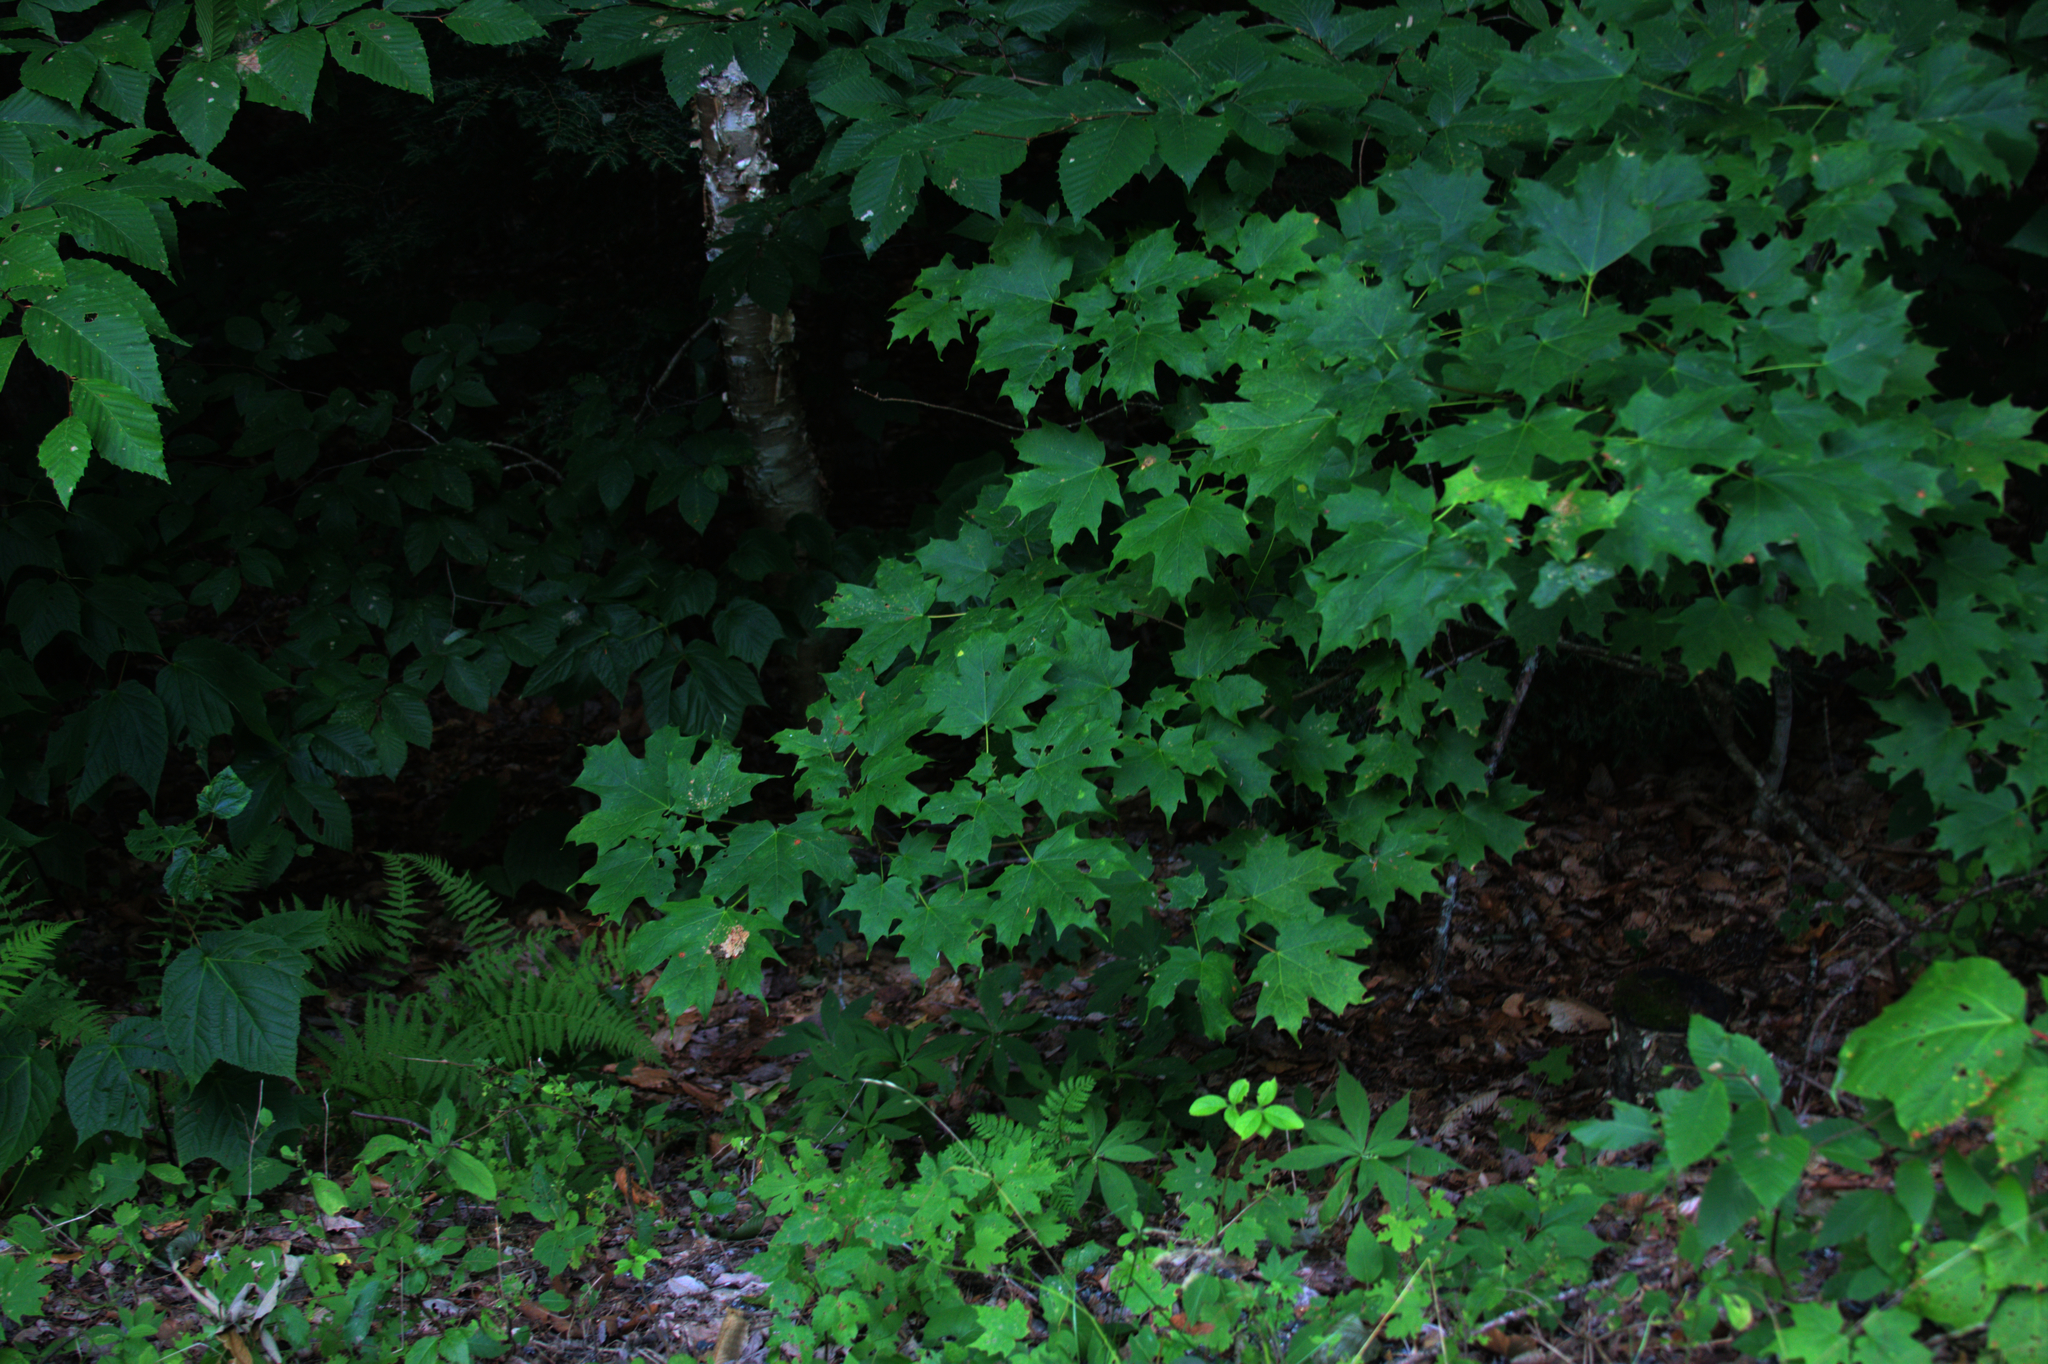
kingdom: Plantae
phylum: Tracheophyta
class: Magnoliopsida
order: Sapindales
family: Sapindaceae
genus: Acer
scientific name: Acer pensylvanicum
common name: Moosewood
